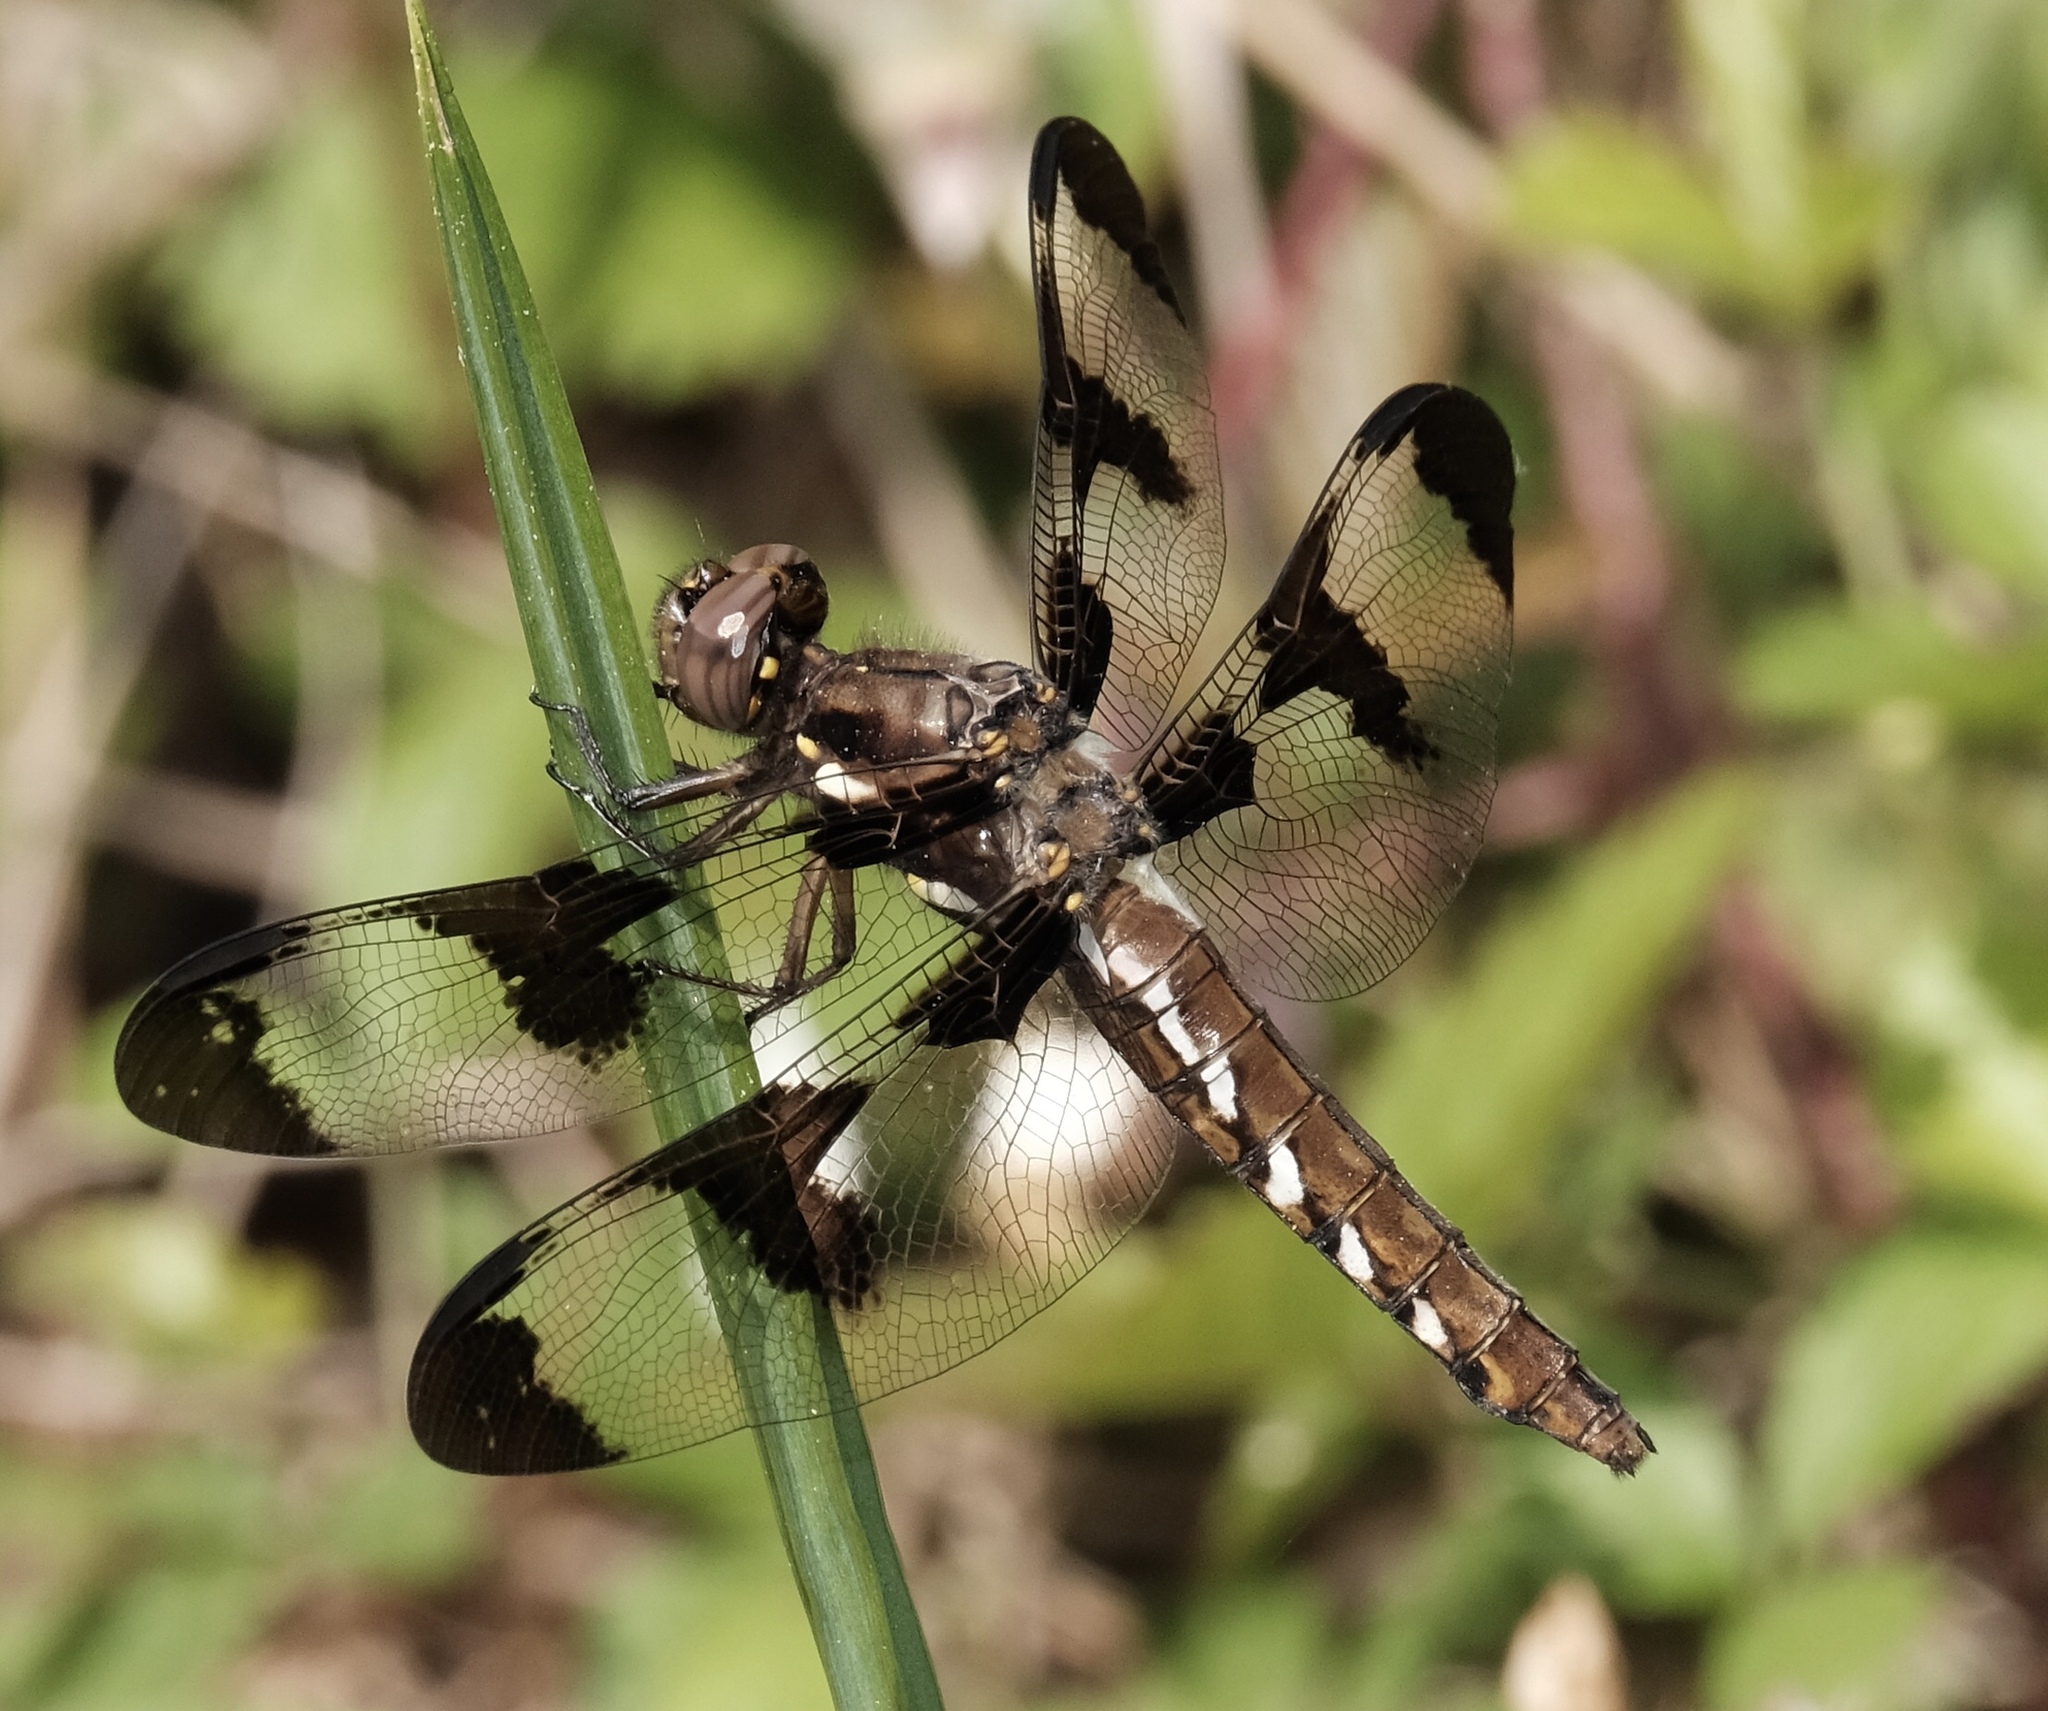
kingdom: Animalia
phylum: Arthropoda
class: Insecta
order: Odonata
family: Libellulidae
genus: Plathemis
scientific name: Plathemis lydia
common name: Common whitetail
